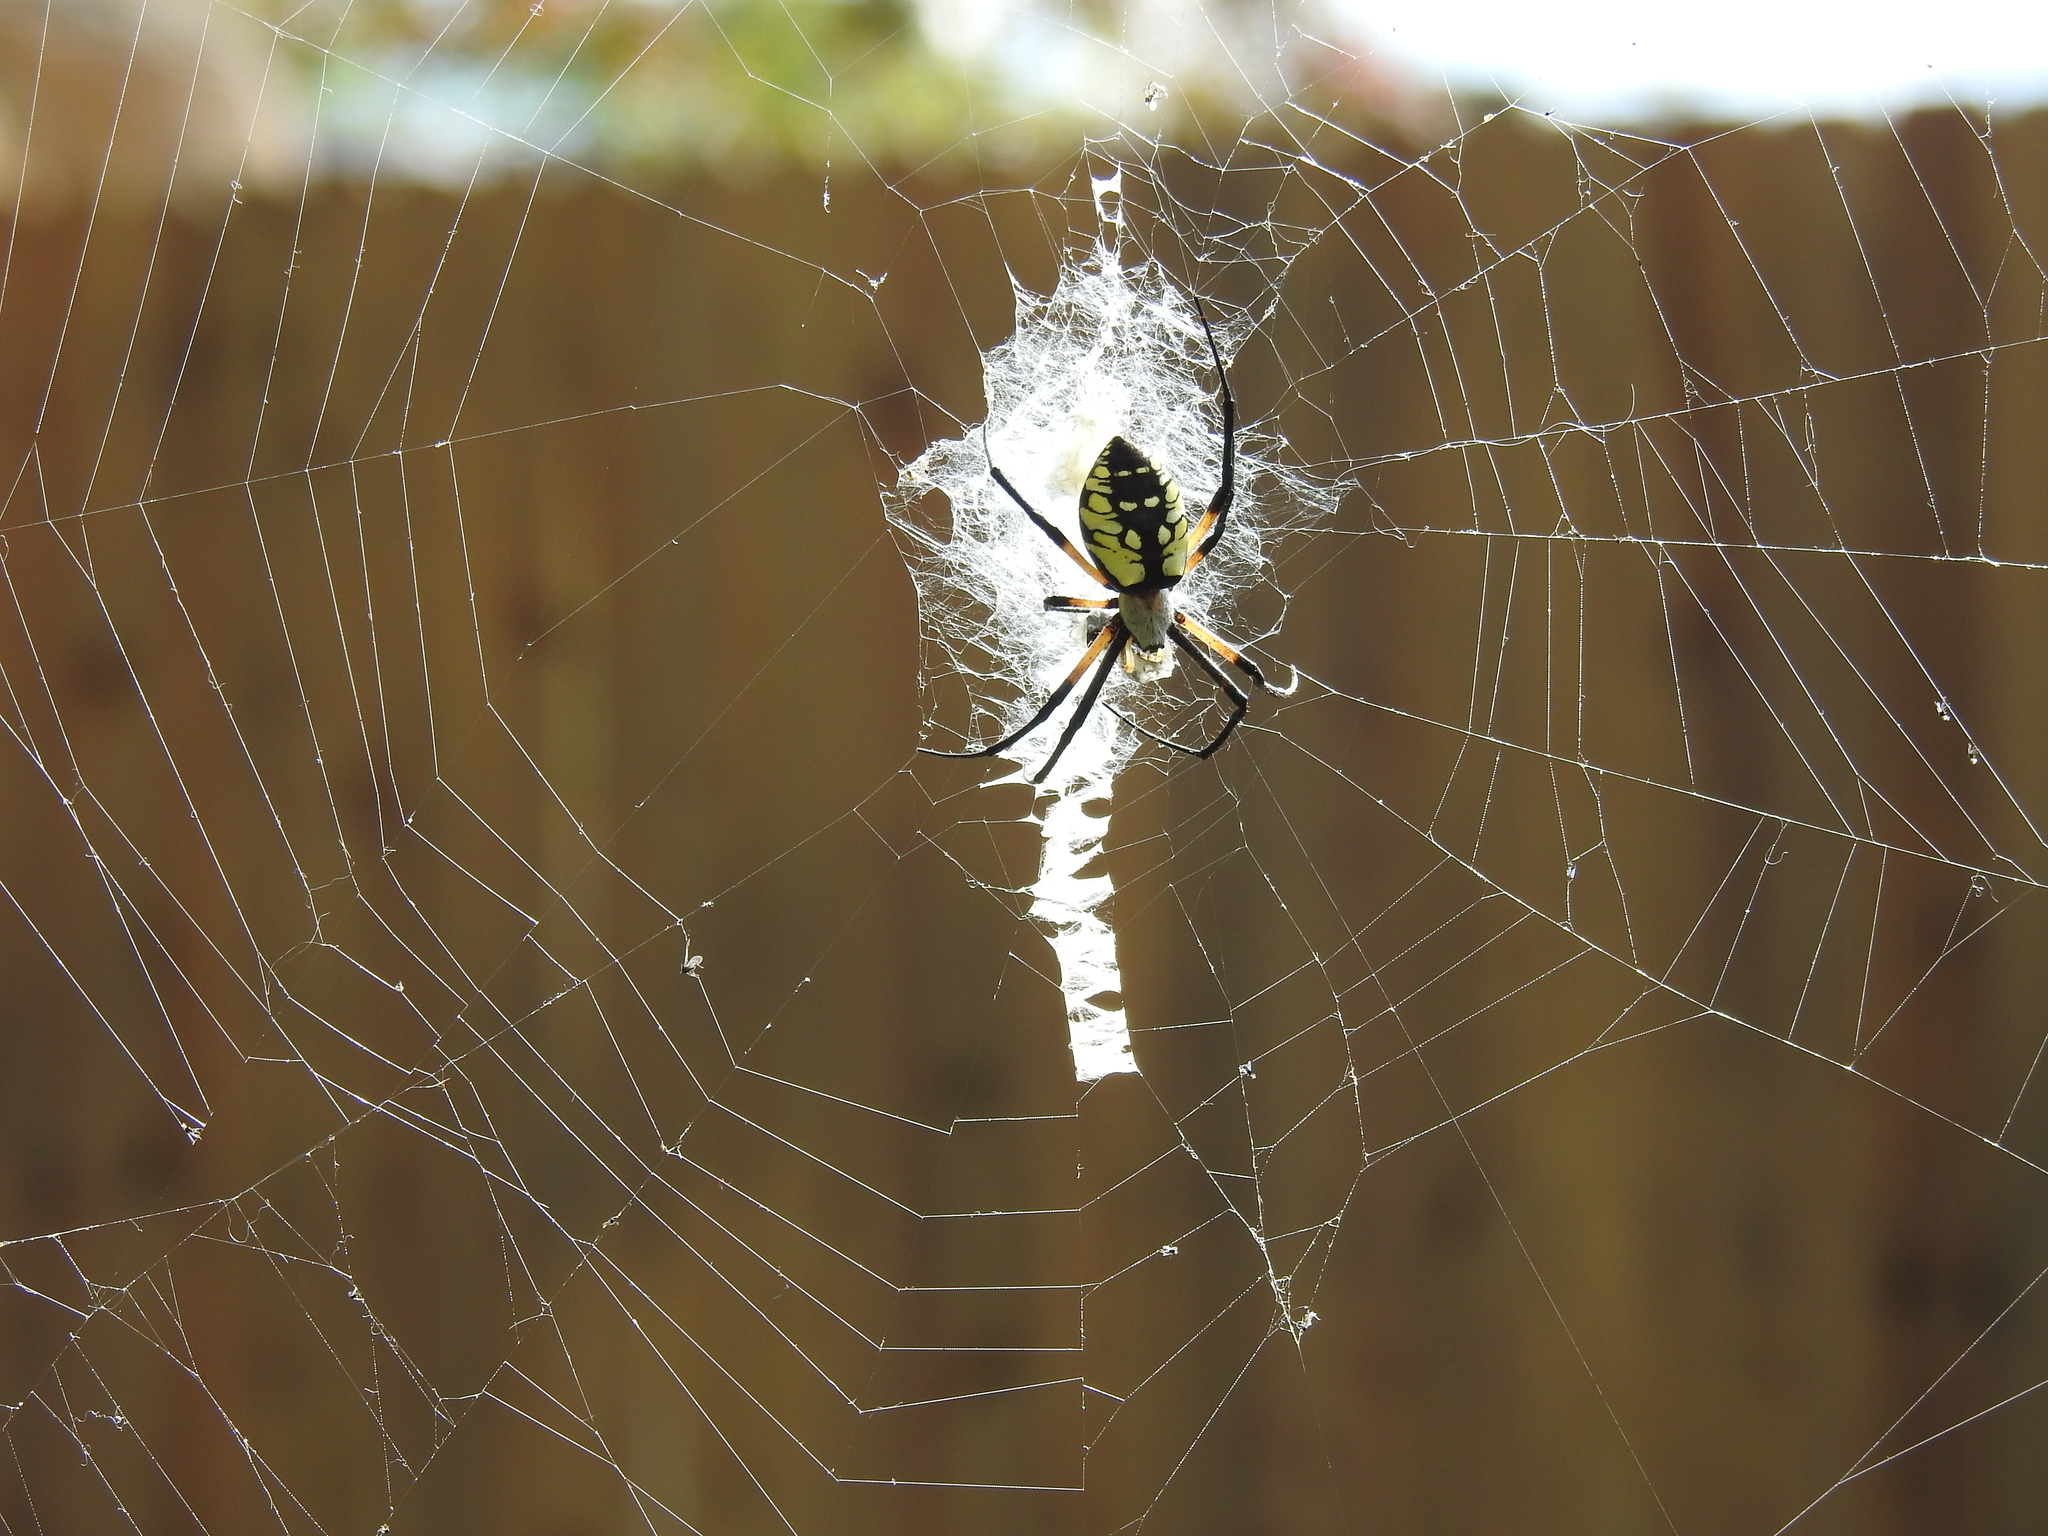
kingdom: Animalia
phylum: Arthropoda
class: Arachnida
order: Araneae
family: Araneidae
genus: Argiope
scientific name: Argiope aurantia
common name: Orb weavers
